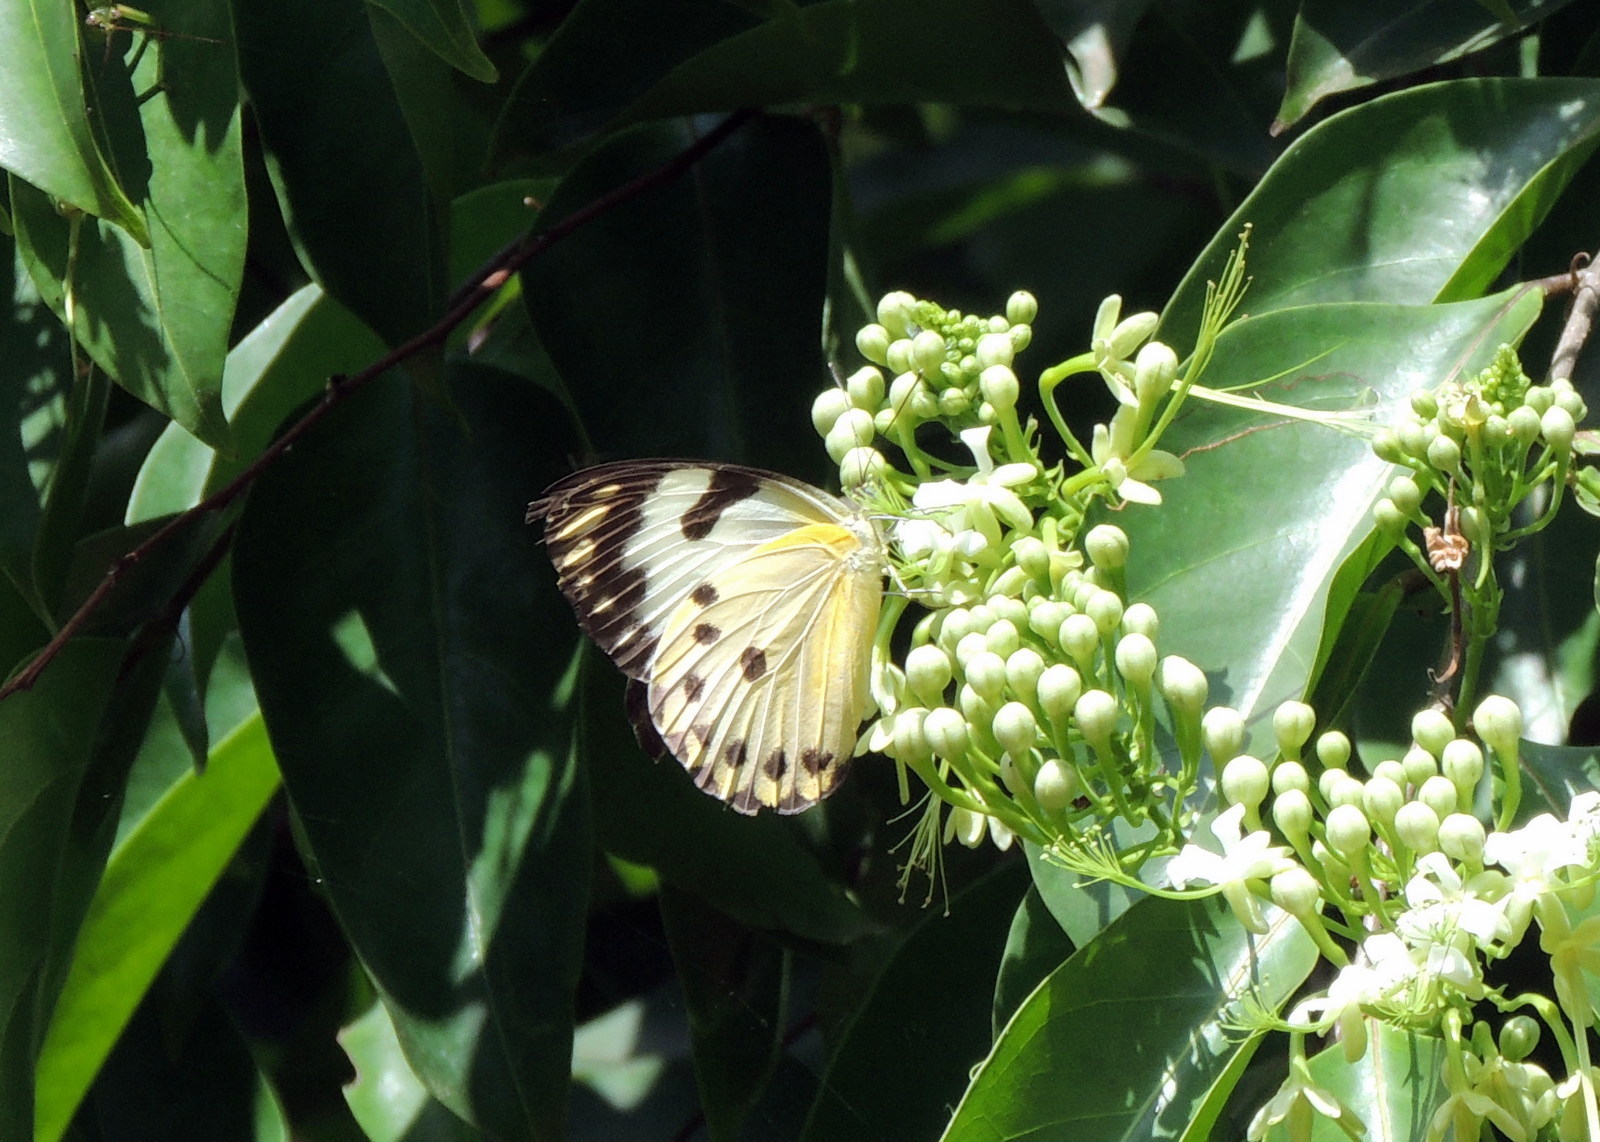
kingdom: Animalia
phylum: Arthropoda
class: Insecta
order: Lepidoptera
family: Pieridae
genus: Belenois
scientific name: Belenois calypso
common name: Calypso caper white
